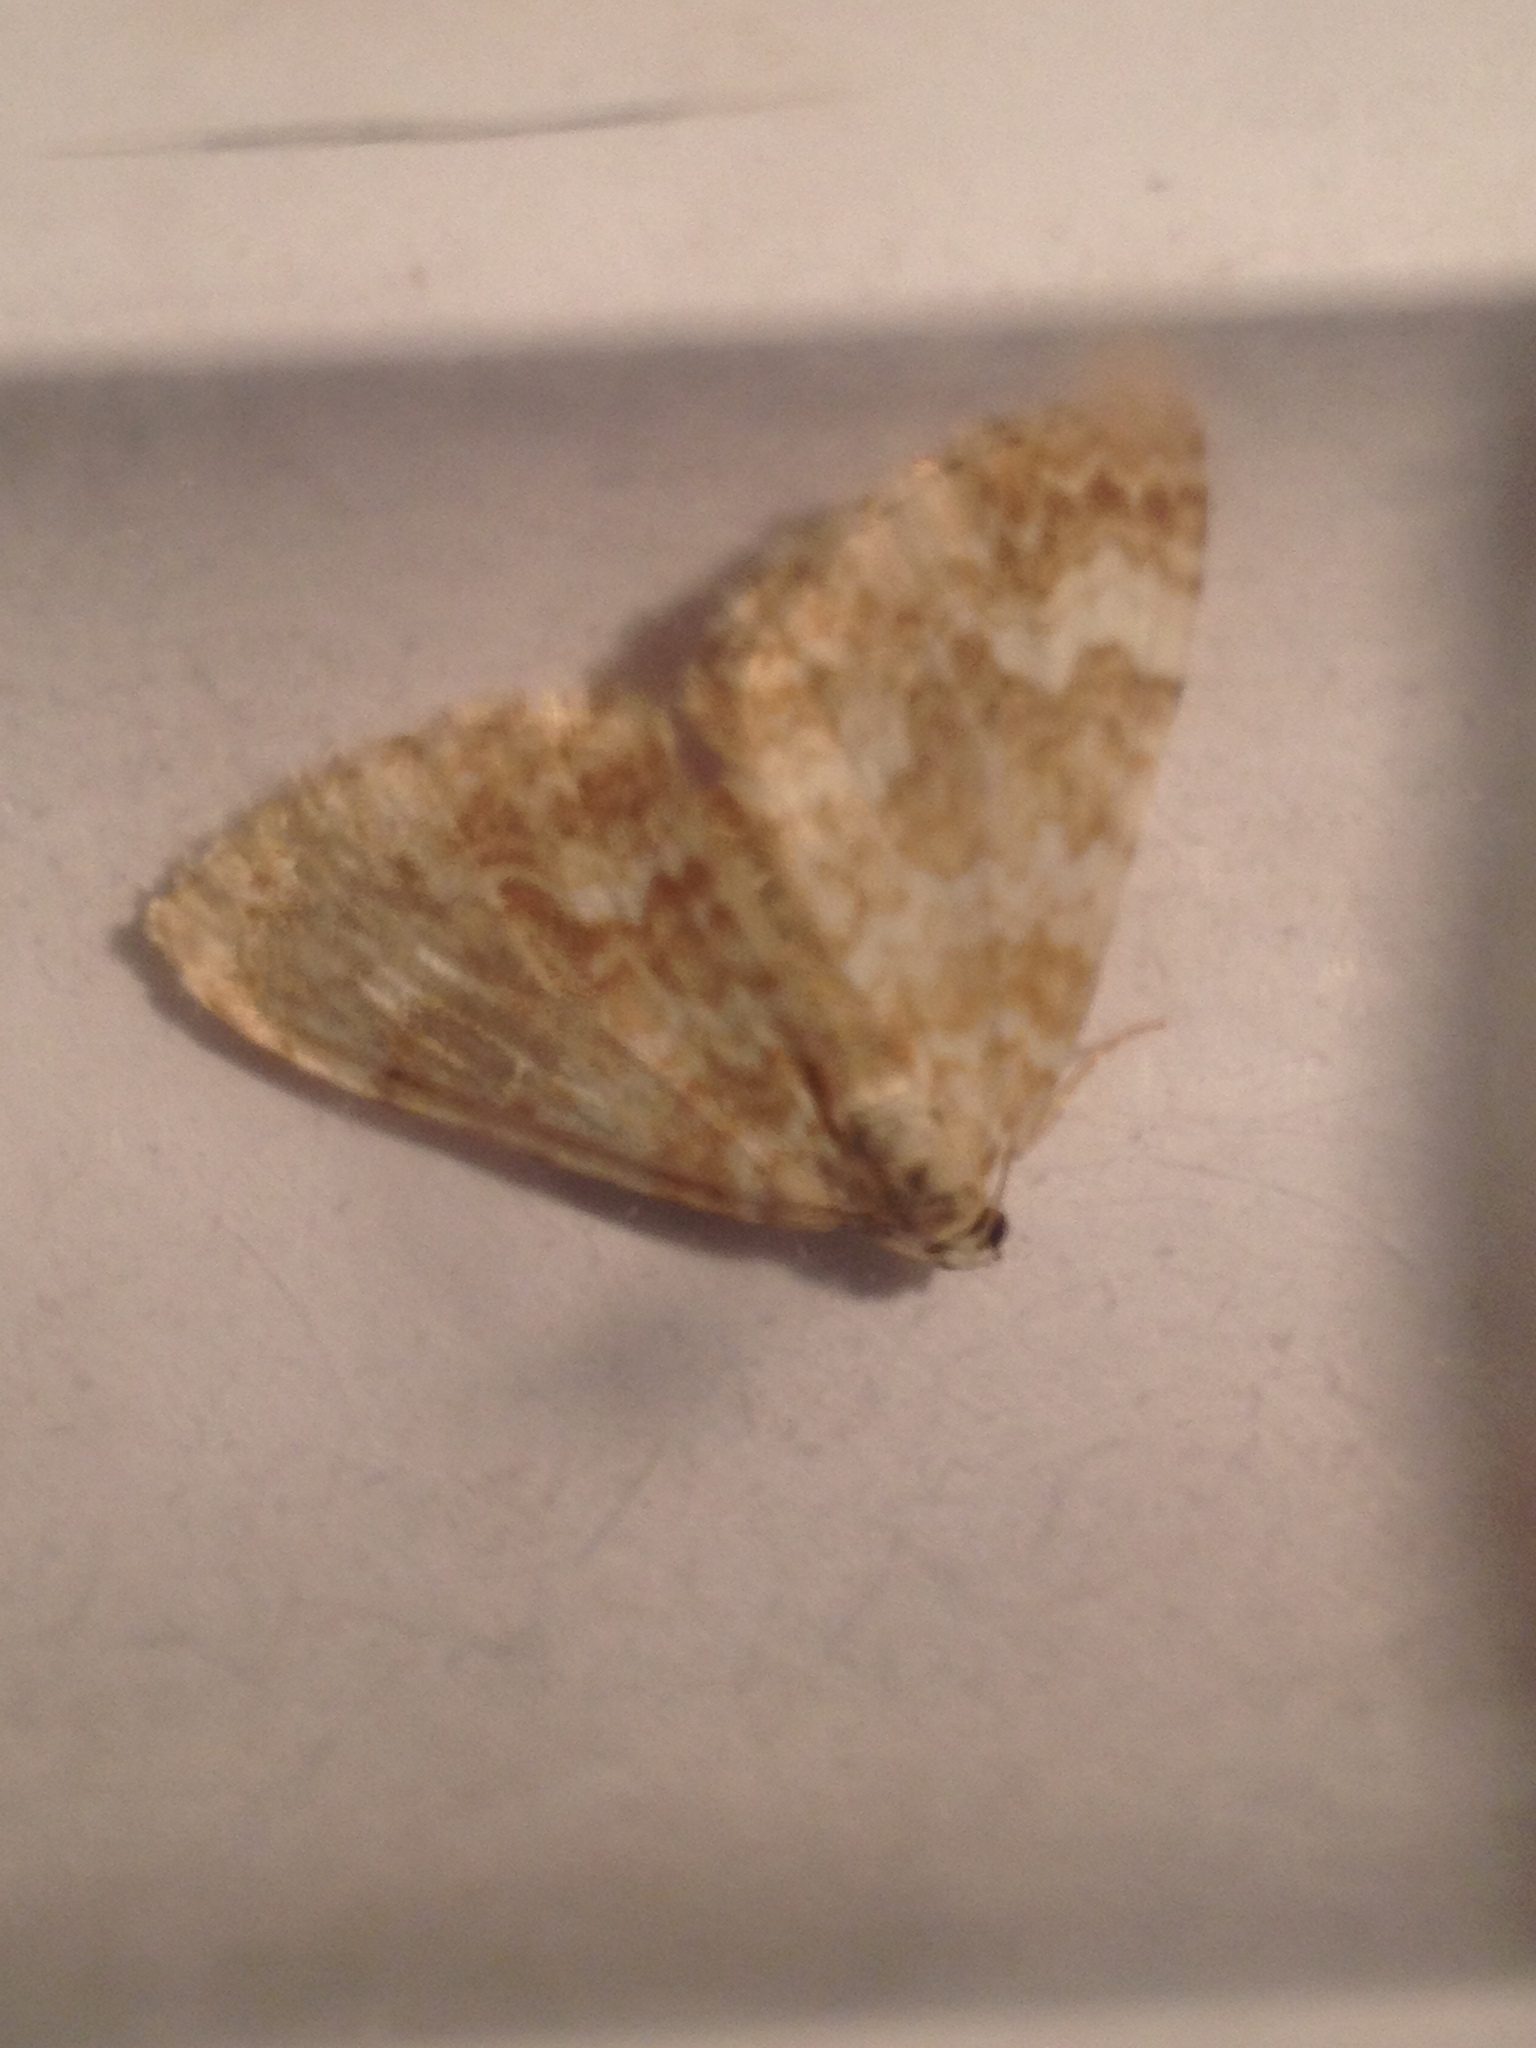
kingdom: Animalia
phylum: Arthropoda
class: Insecta
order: Lepidoptera
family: Geometridae
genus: Perizoma
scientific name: Perizoma flavofasciata
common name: Sandy carpet
